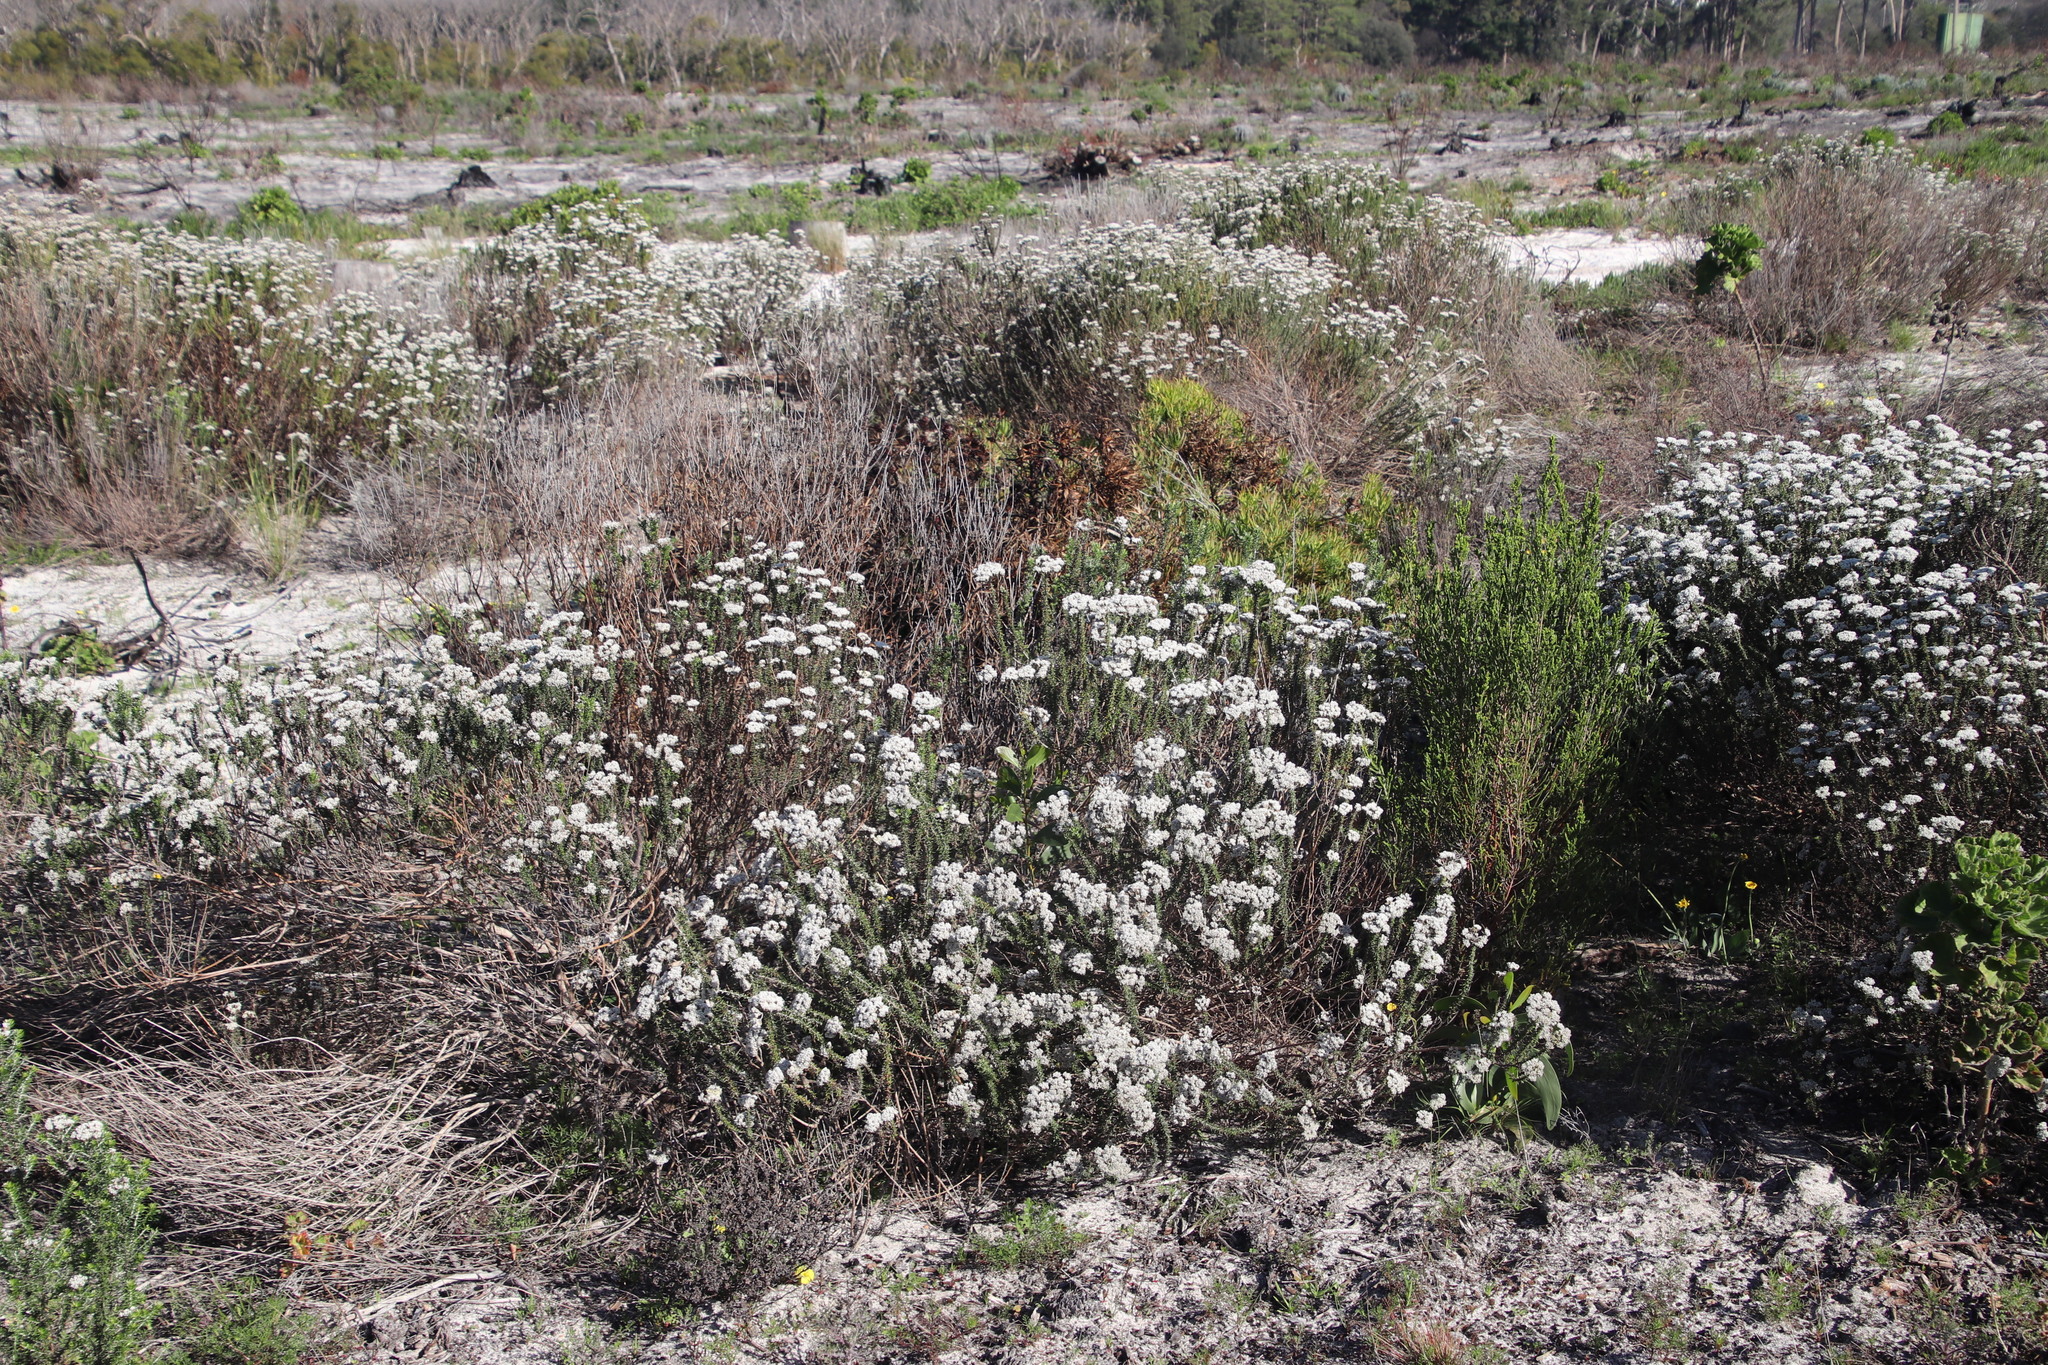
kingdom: Plantae
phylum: Tracheophyta
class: Magnoliopsida
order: Asterales
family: Asteraceae
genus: Metalasia
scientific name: Metalasia densa
